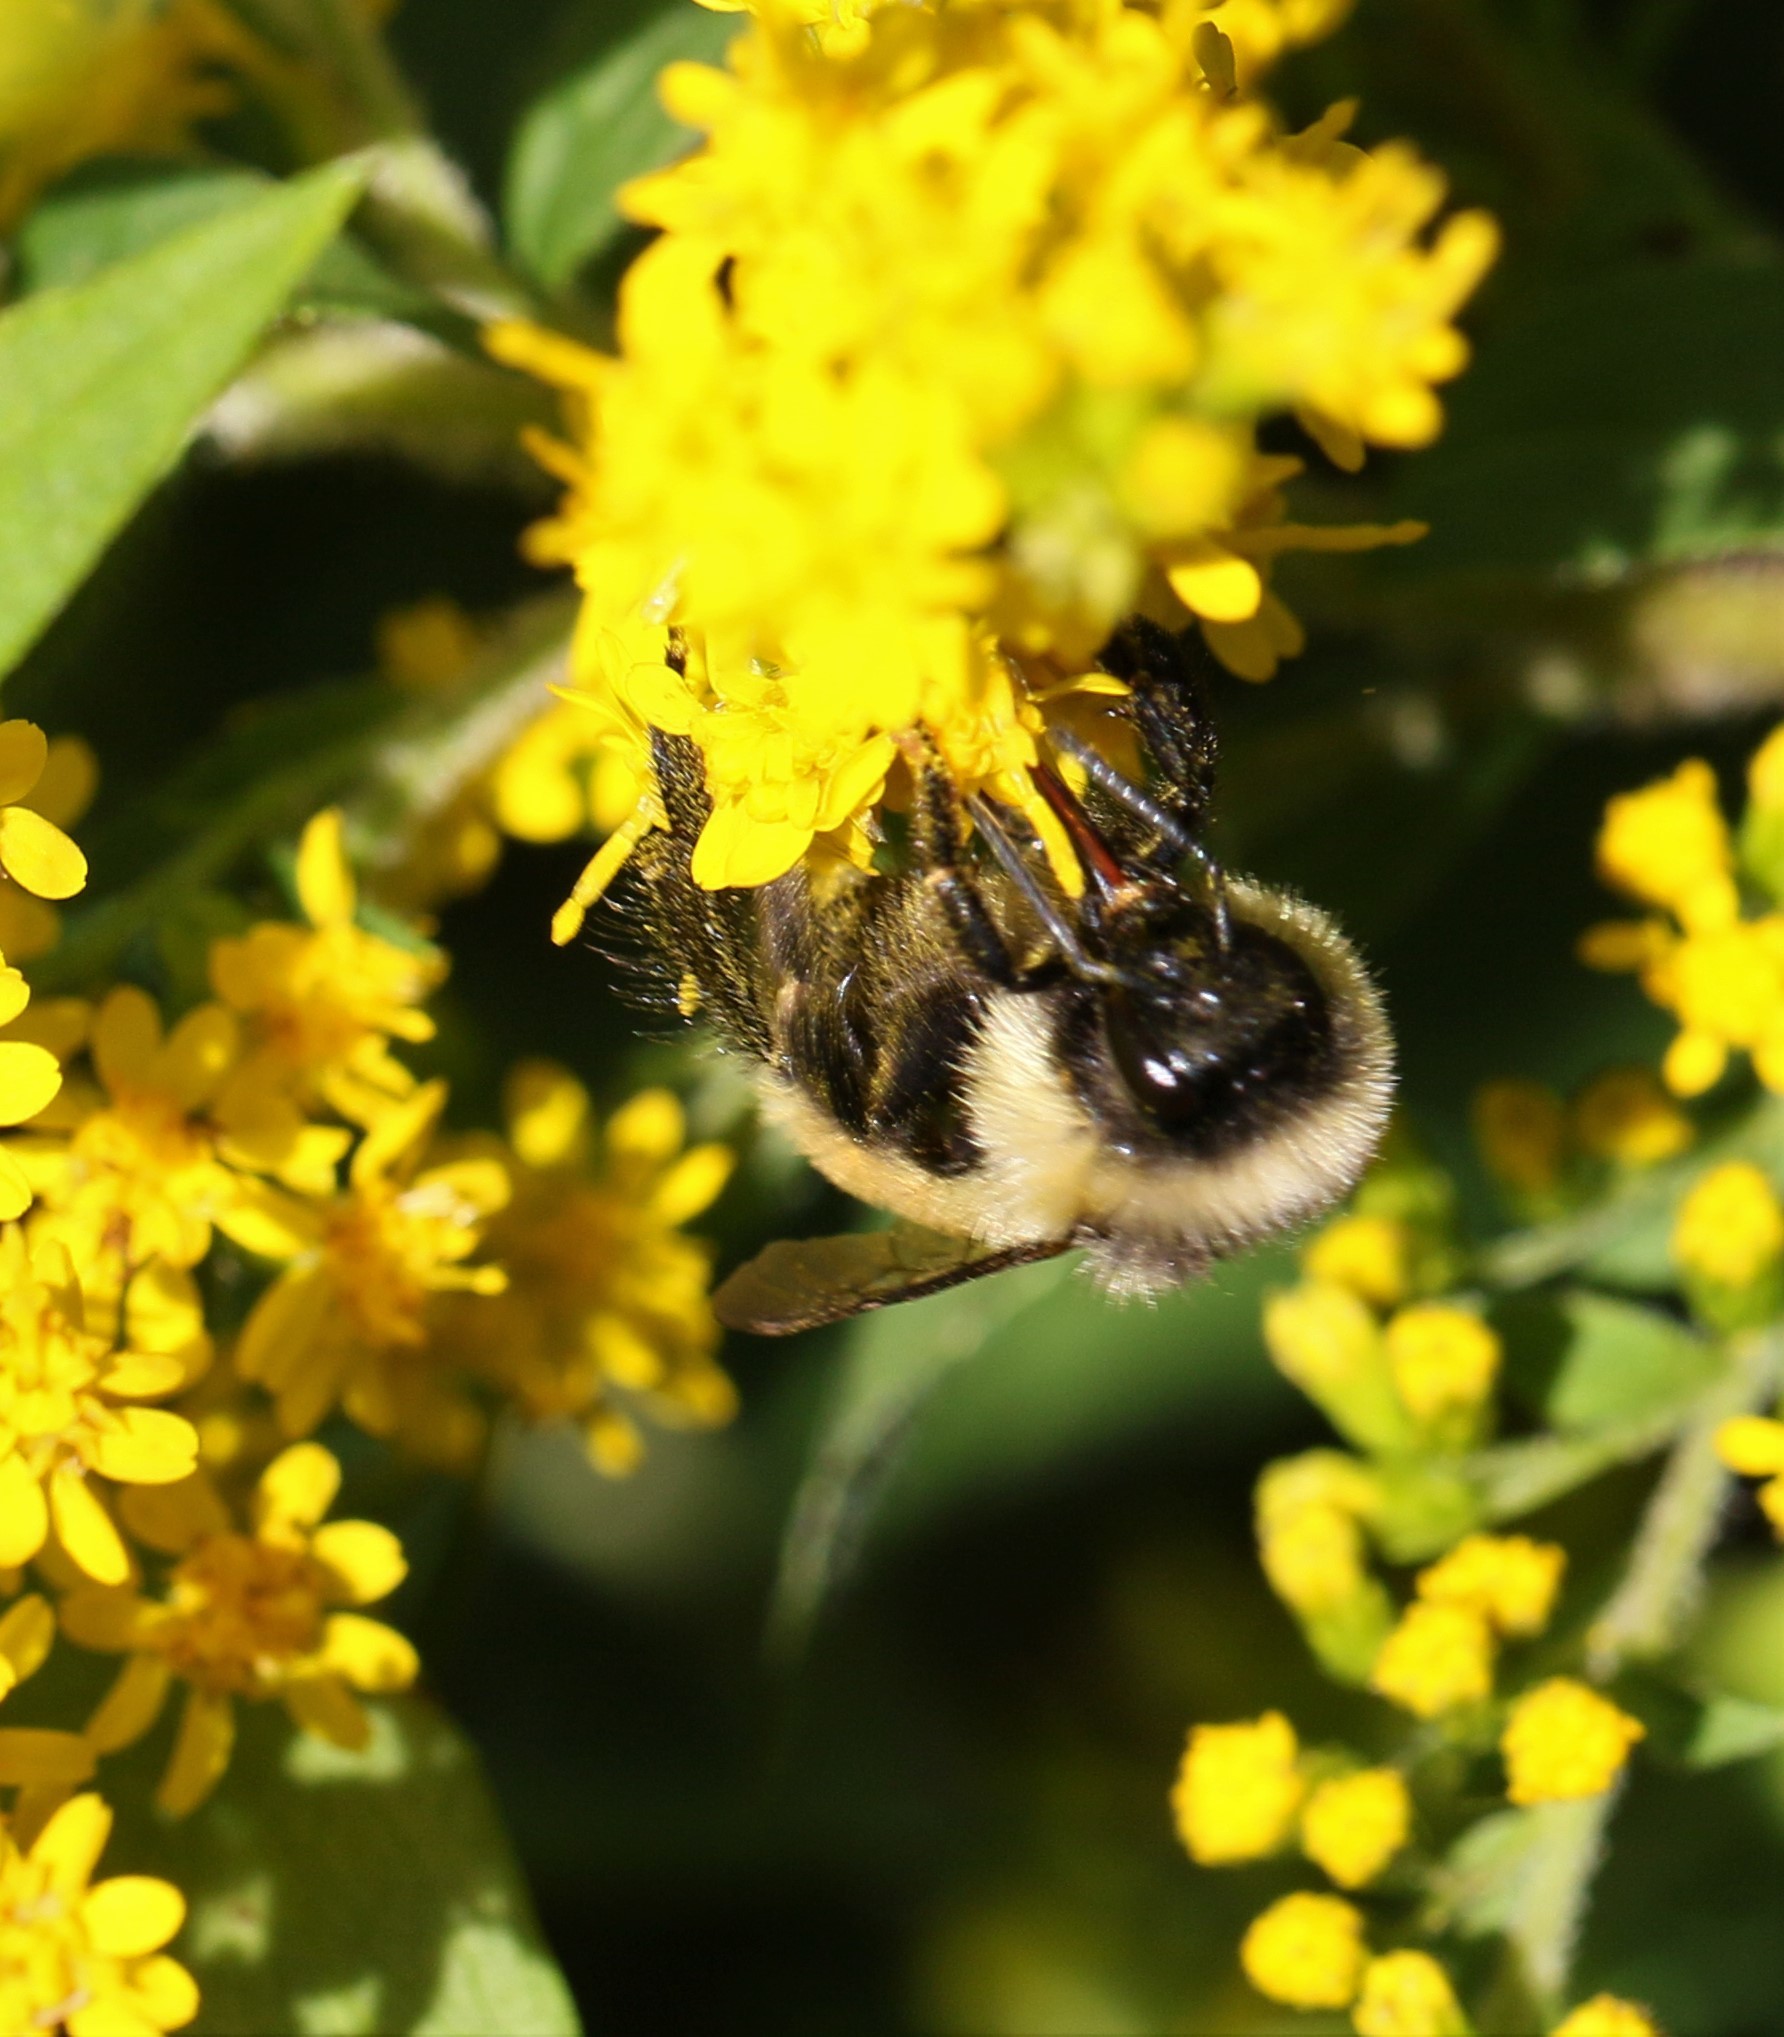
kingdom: Animalia
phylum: Arthropoda
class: Insecta
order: Hymenoptera
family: Apidae
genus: Bombus
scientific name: Bombus ternarius
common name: Tri-colored bumble bee
